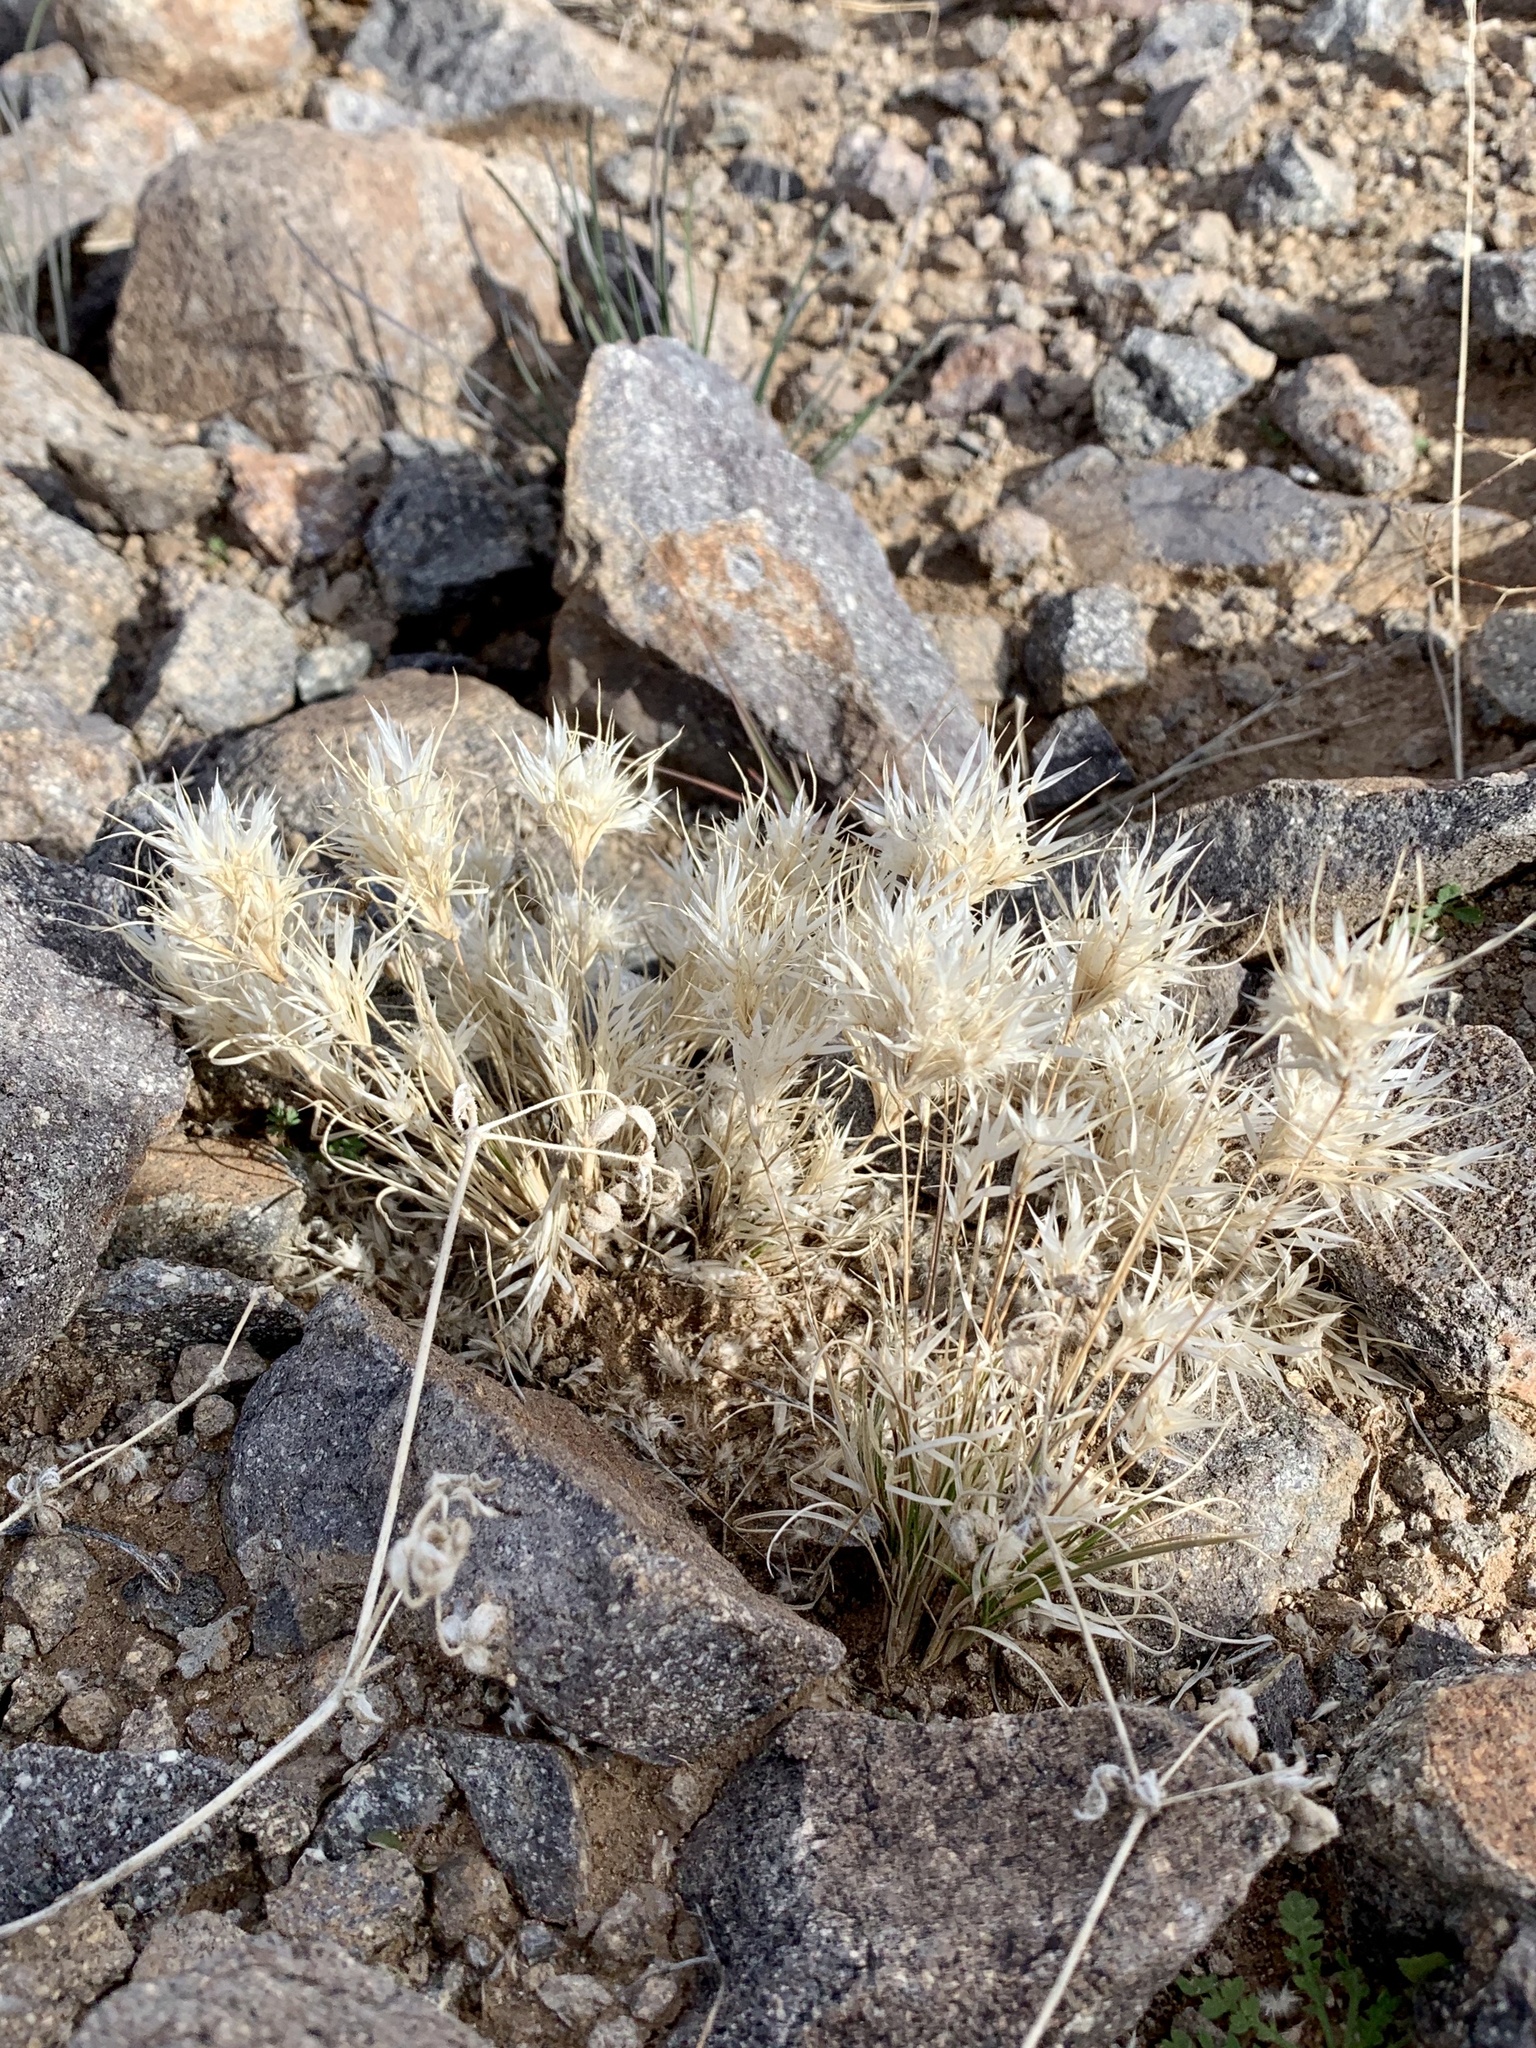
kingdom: Plantae
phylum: Tracheophyta
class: Liliopsida
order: Poales
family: Poaceae
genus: Dasyochloa
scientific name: Dasyochloa pulchella
